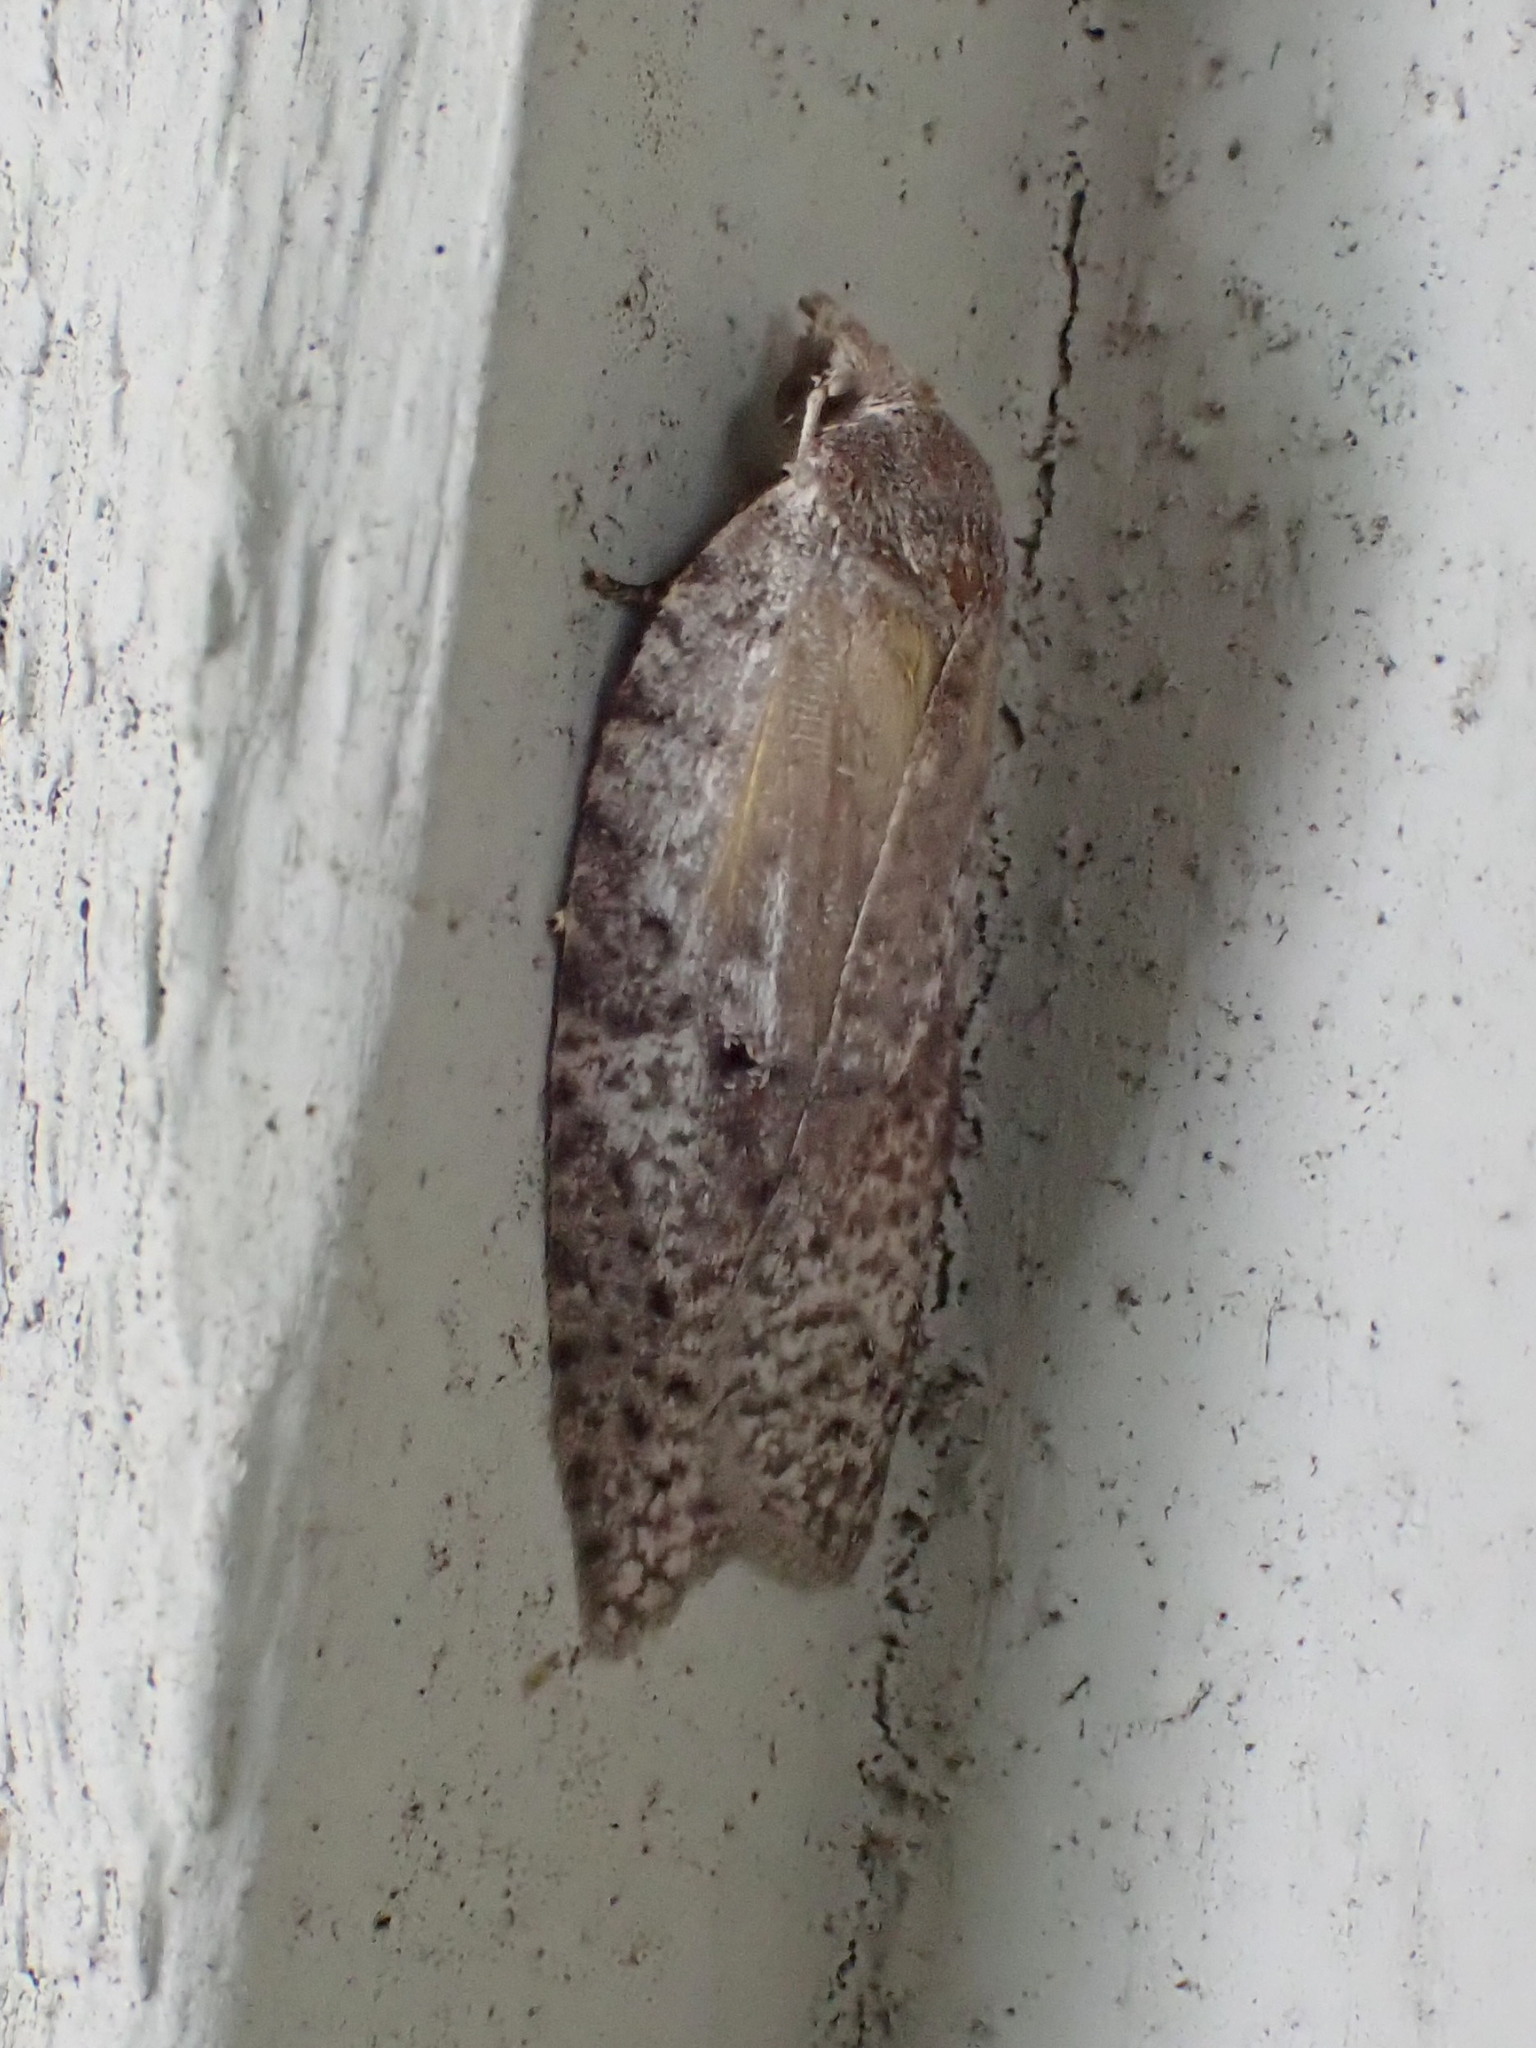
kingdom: Animalia
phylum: Arthropoda
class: Insecta
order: Lepidoptera
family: Tortricidae
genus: Amorbia
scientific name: Amorbia humerosana
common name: White-lined leafroller moth
